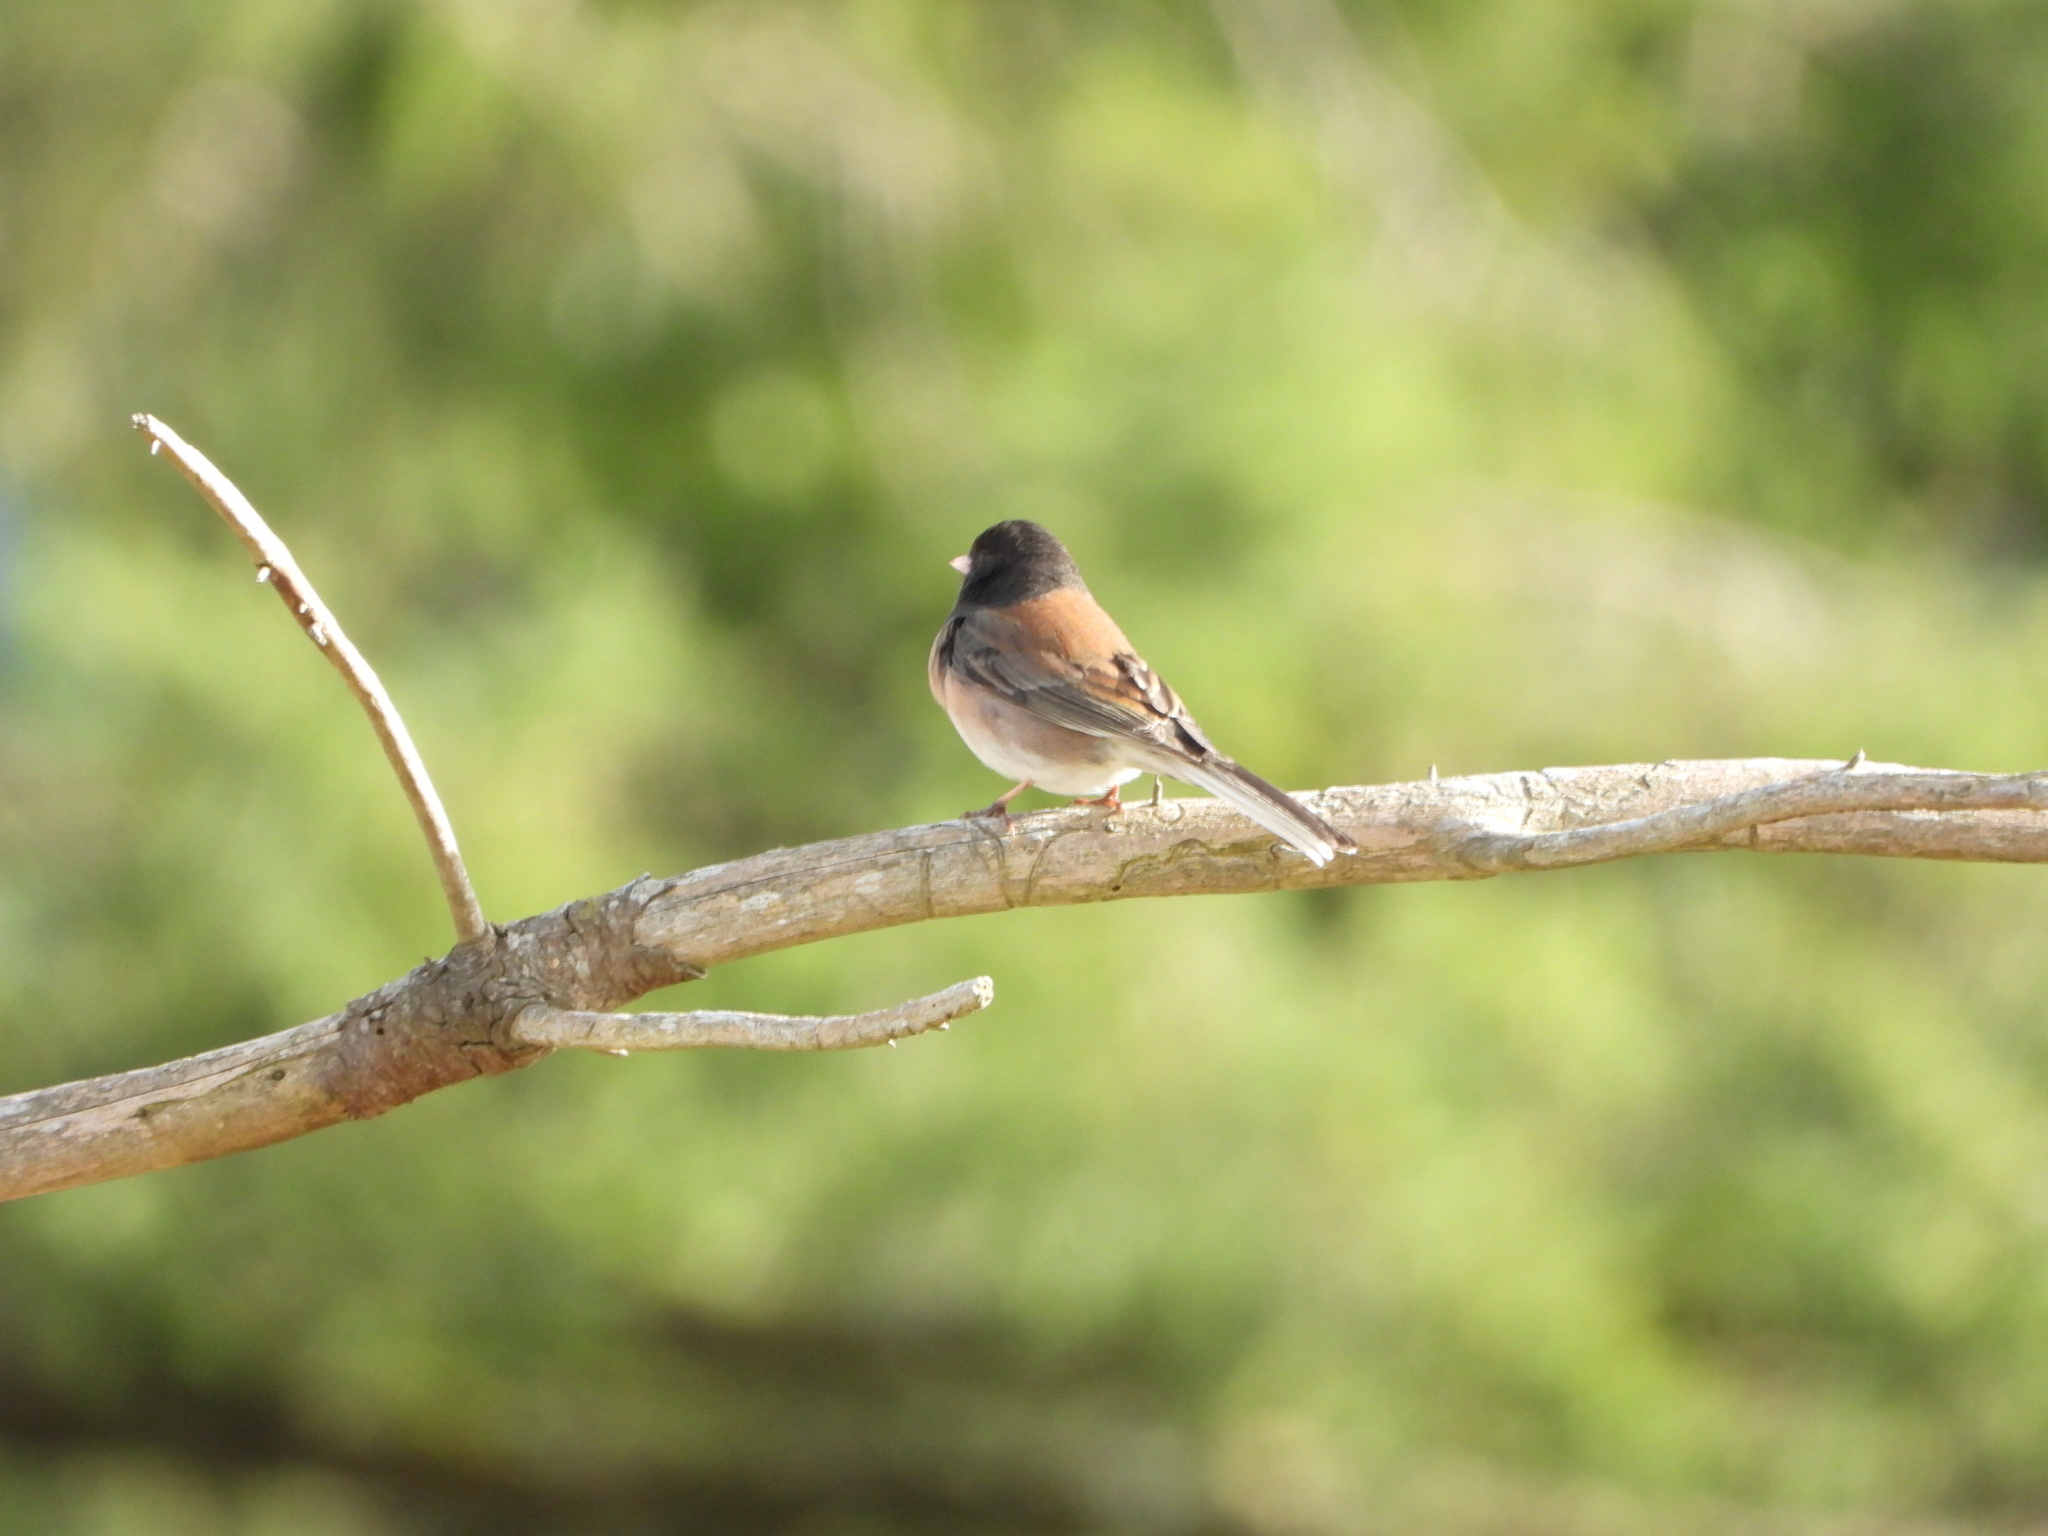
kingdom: Animalia
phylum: Chordata
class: Aves
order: Passeriformes
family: Passerellidae
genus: Junco
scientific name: Junco hyemalis
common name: Dark-eyed junco
